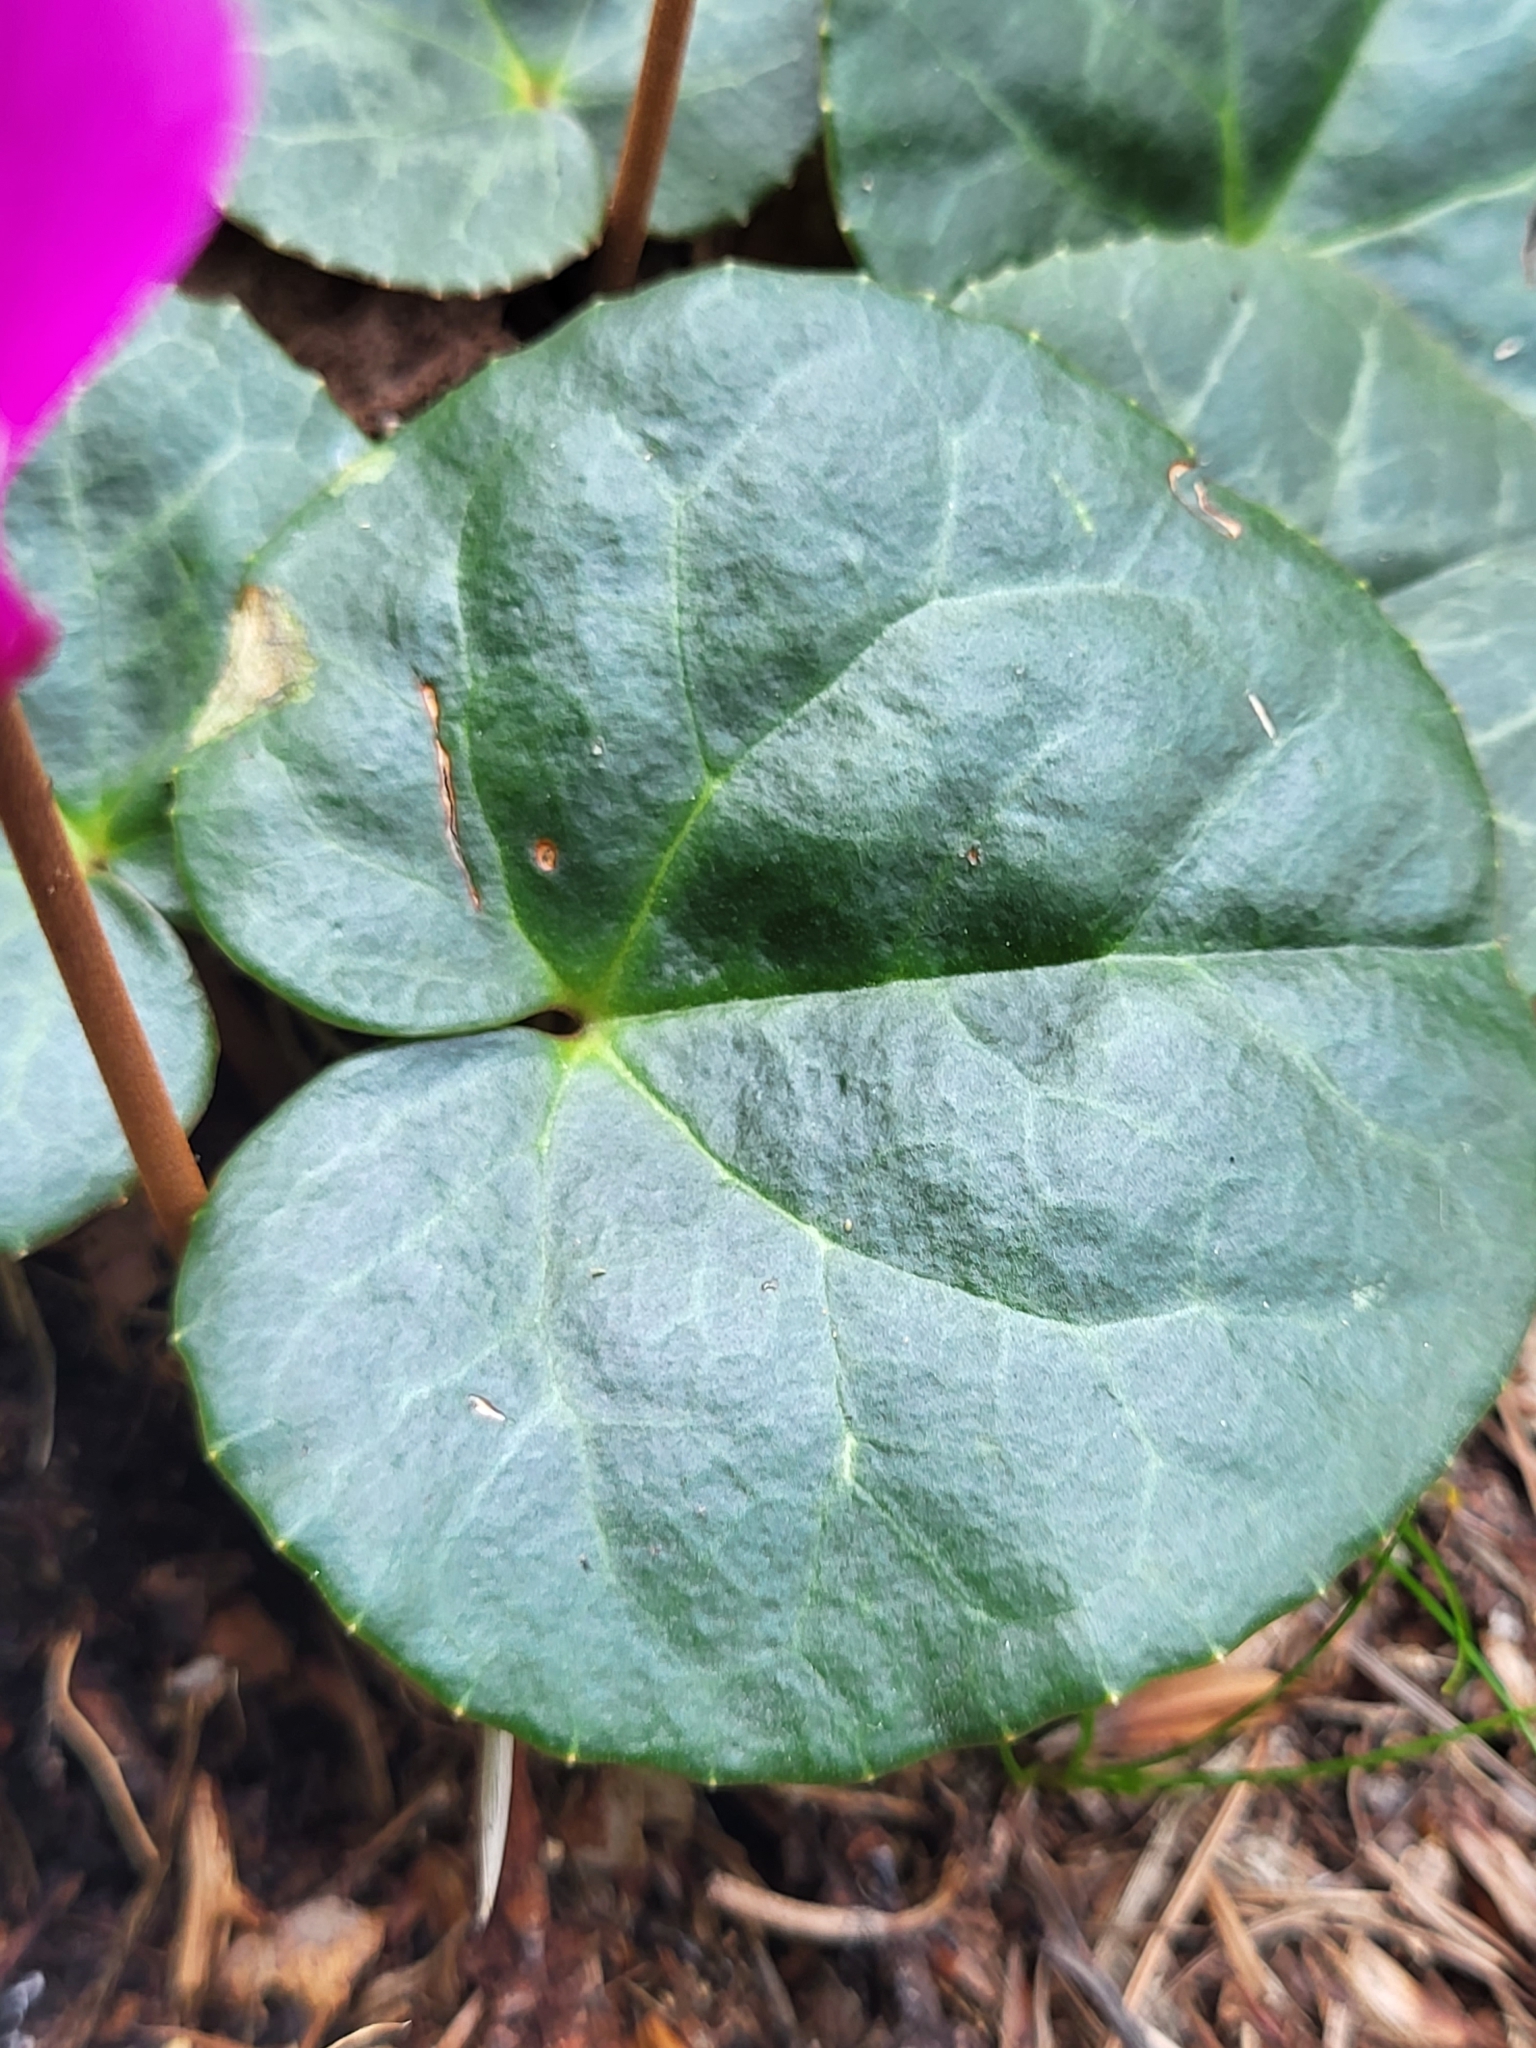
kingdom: Plantae
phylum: Tracheophyta
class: Magnoliopsida
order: Ericales
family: Primulaceae
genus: Cyclamen
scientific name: Cyclamen purpurascens
